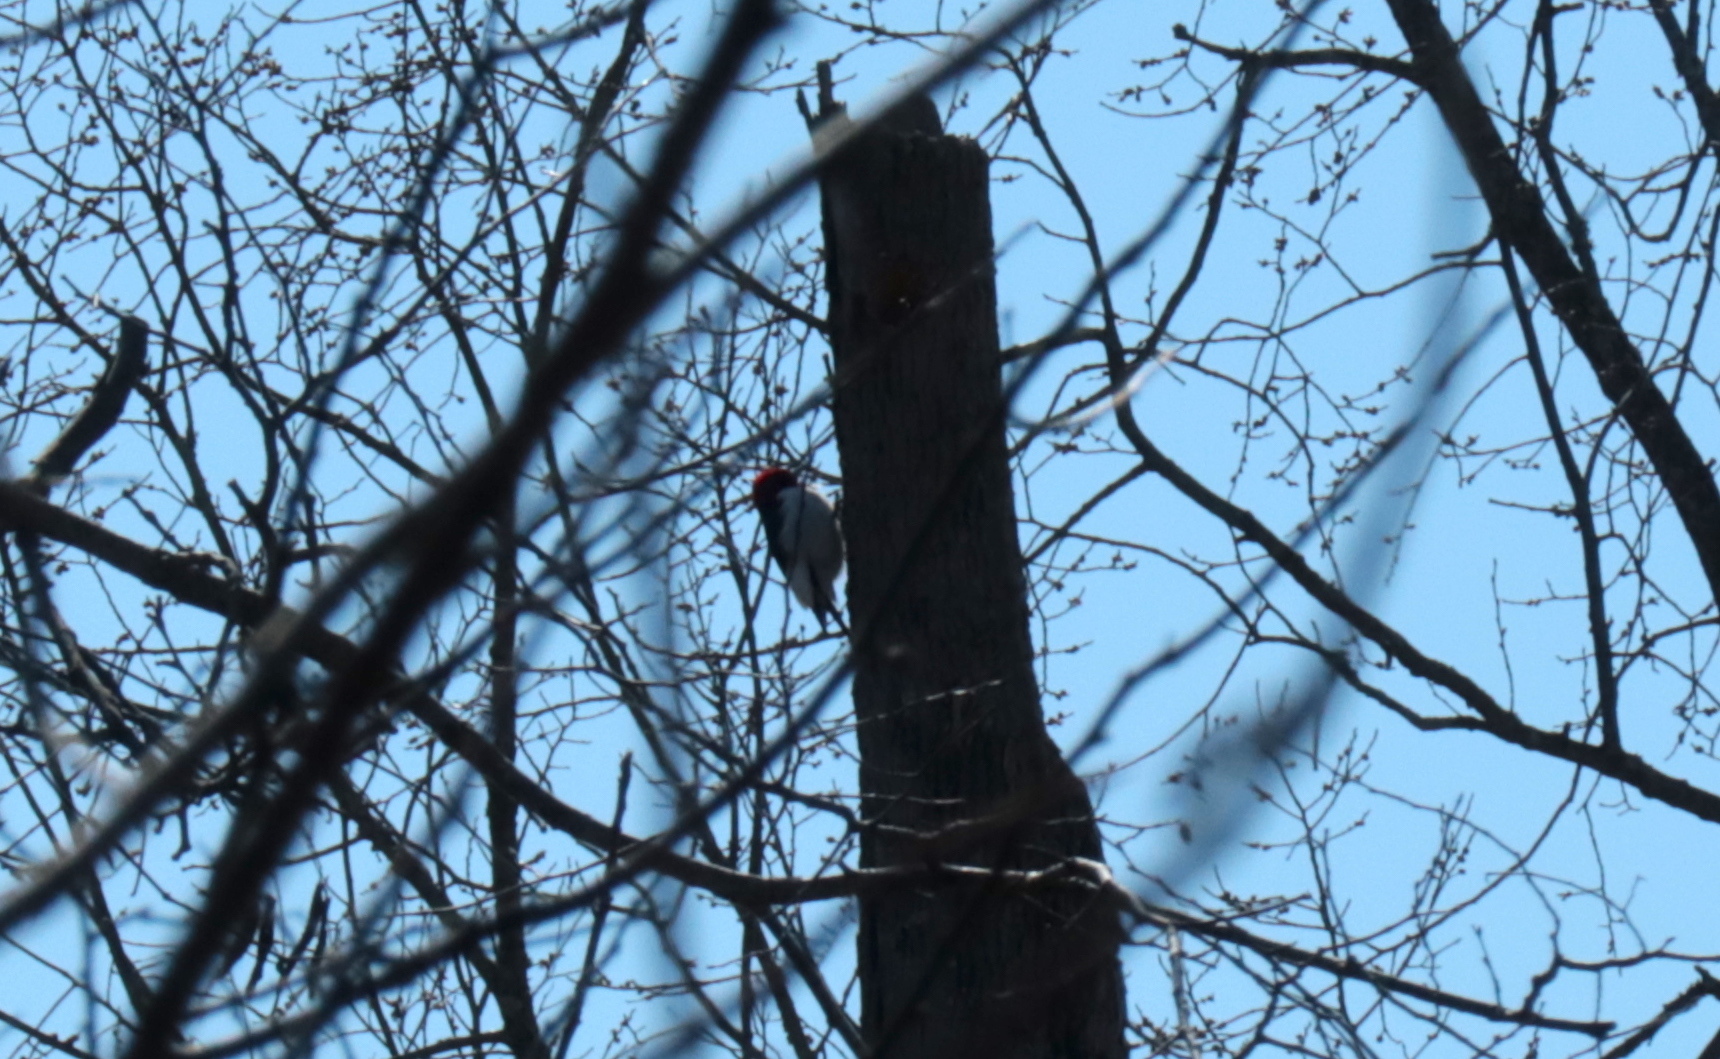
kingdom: Animalia
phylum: Chordata
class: Aves
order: Piciformes
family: Picidae
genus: Melanerpes
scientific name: Melanerpes erythrocephalus
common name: Red-headed woodpecker
